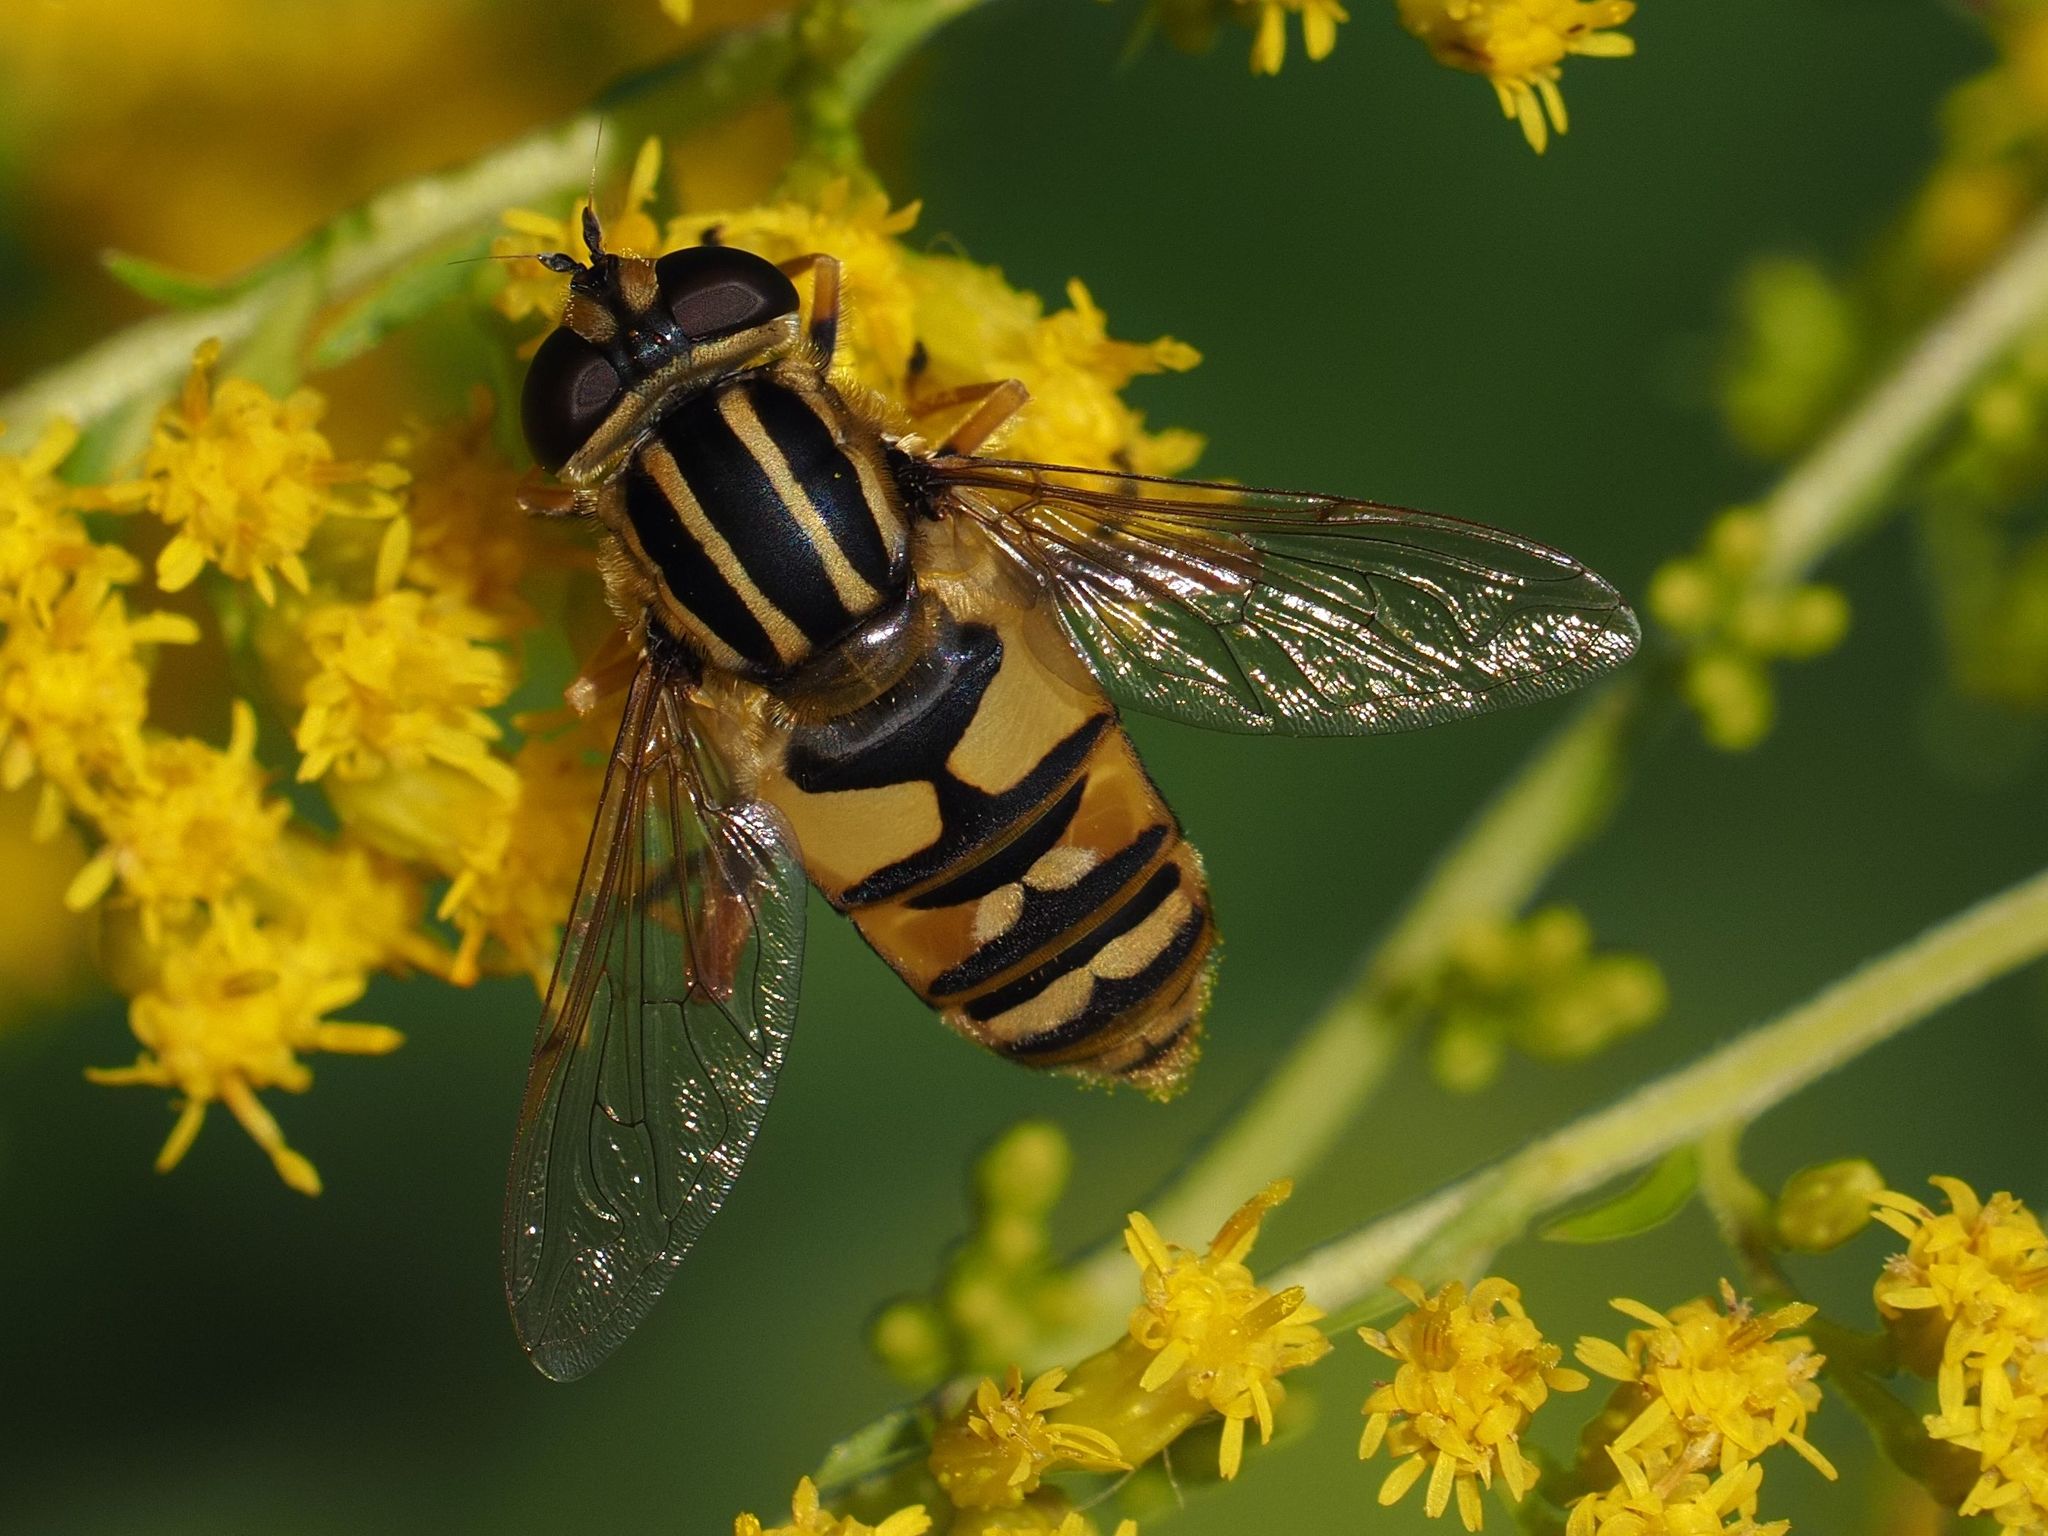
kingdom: Animalia
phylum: Arthropoda
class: Insecta
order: Diptera
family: Syrphidae
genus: Helophilus
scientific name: Helophilus pendulus
